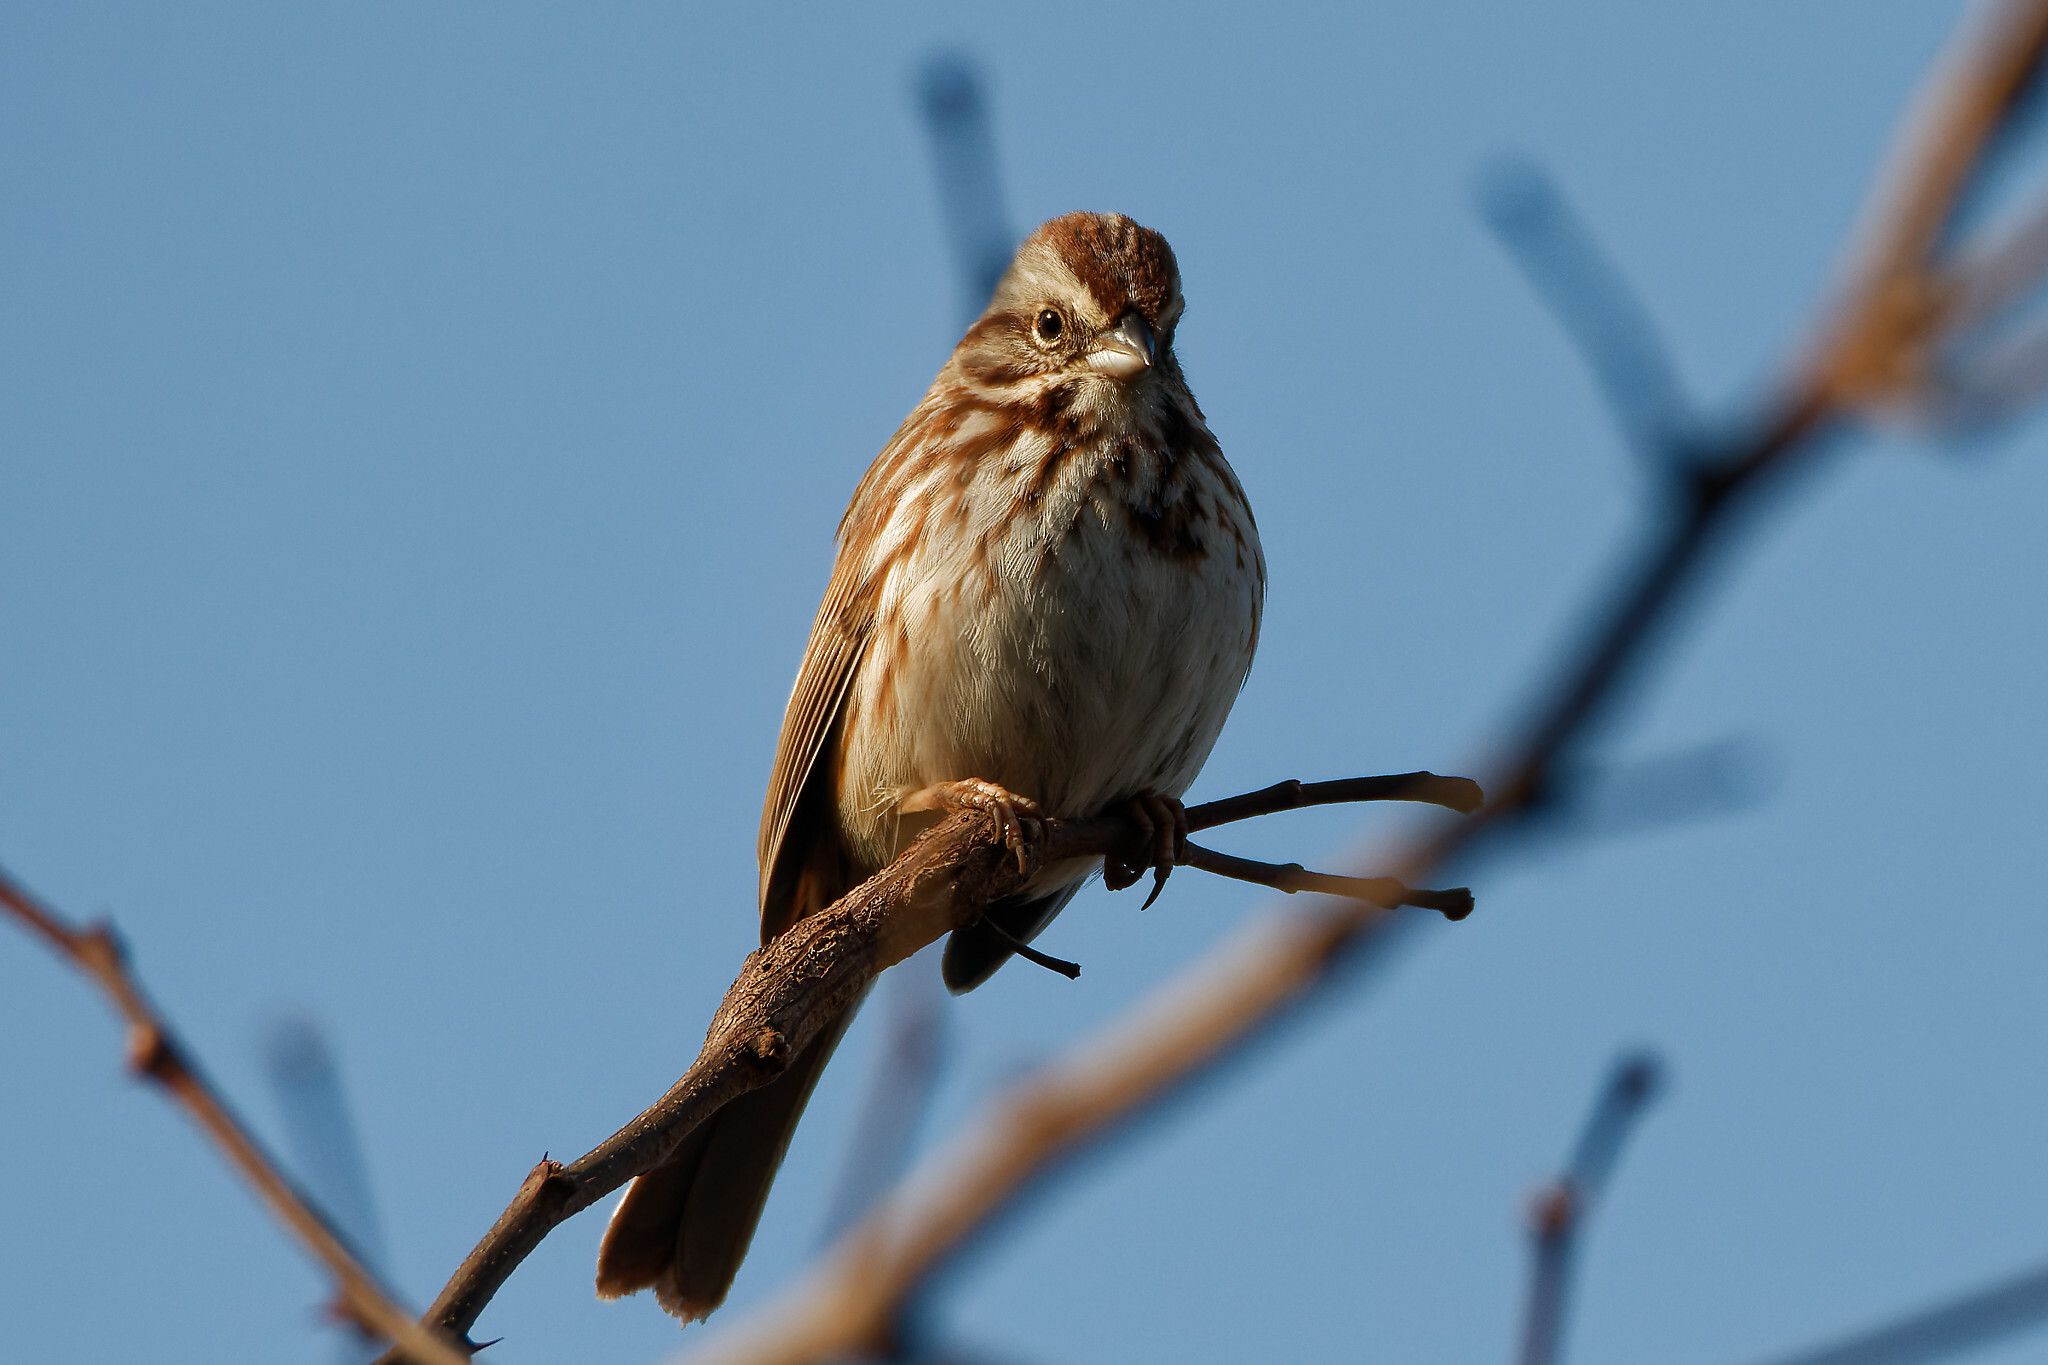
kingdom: Animalia
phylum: Chordata
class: Aves
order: Passeriformes
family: Passerellidae
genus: Melospiza
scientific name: Melospiza melodia
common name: Song sparrow
